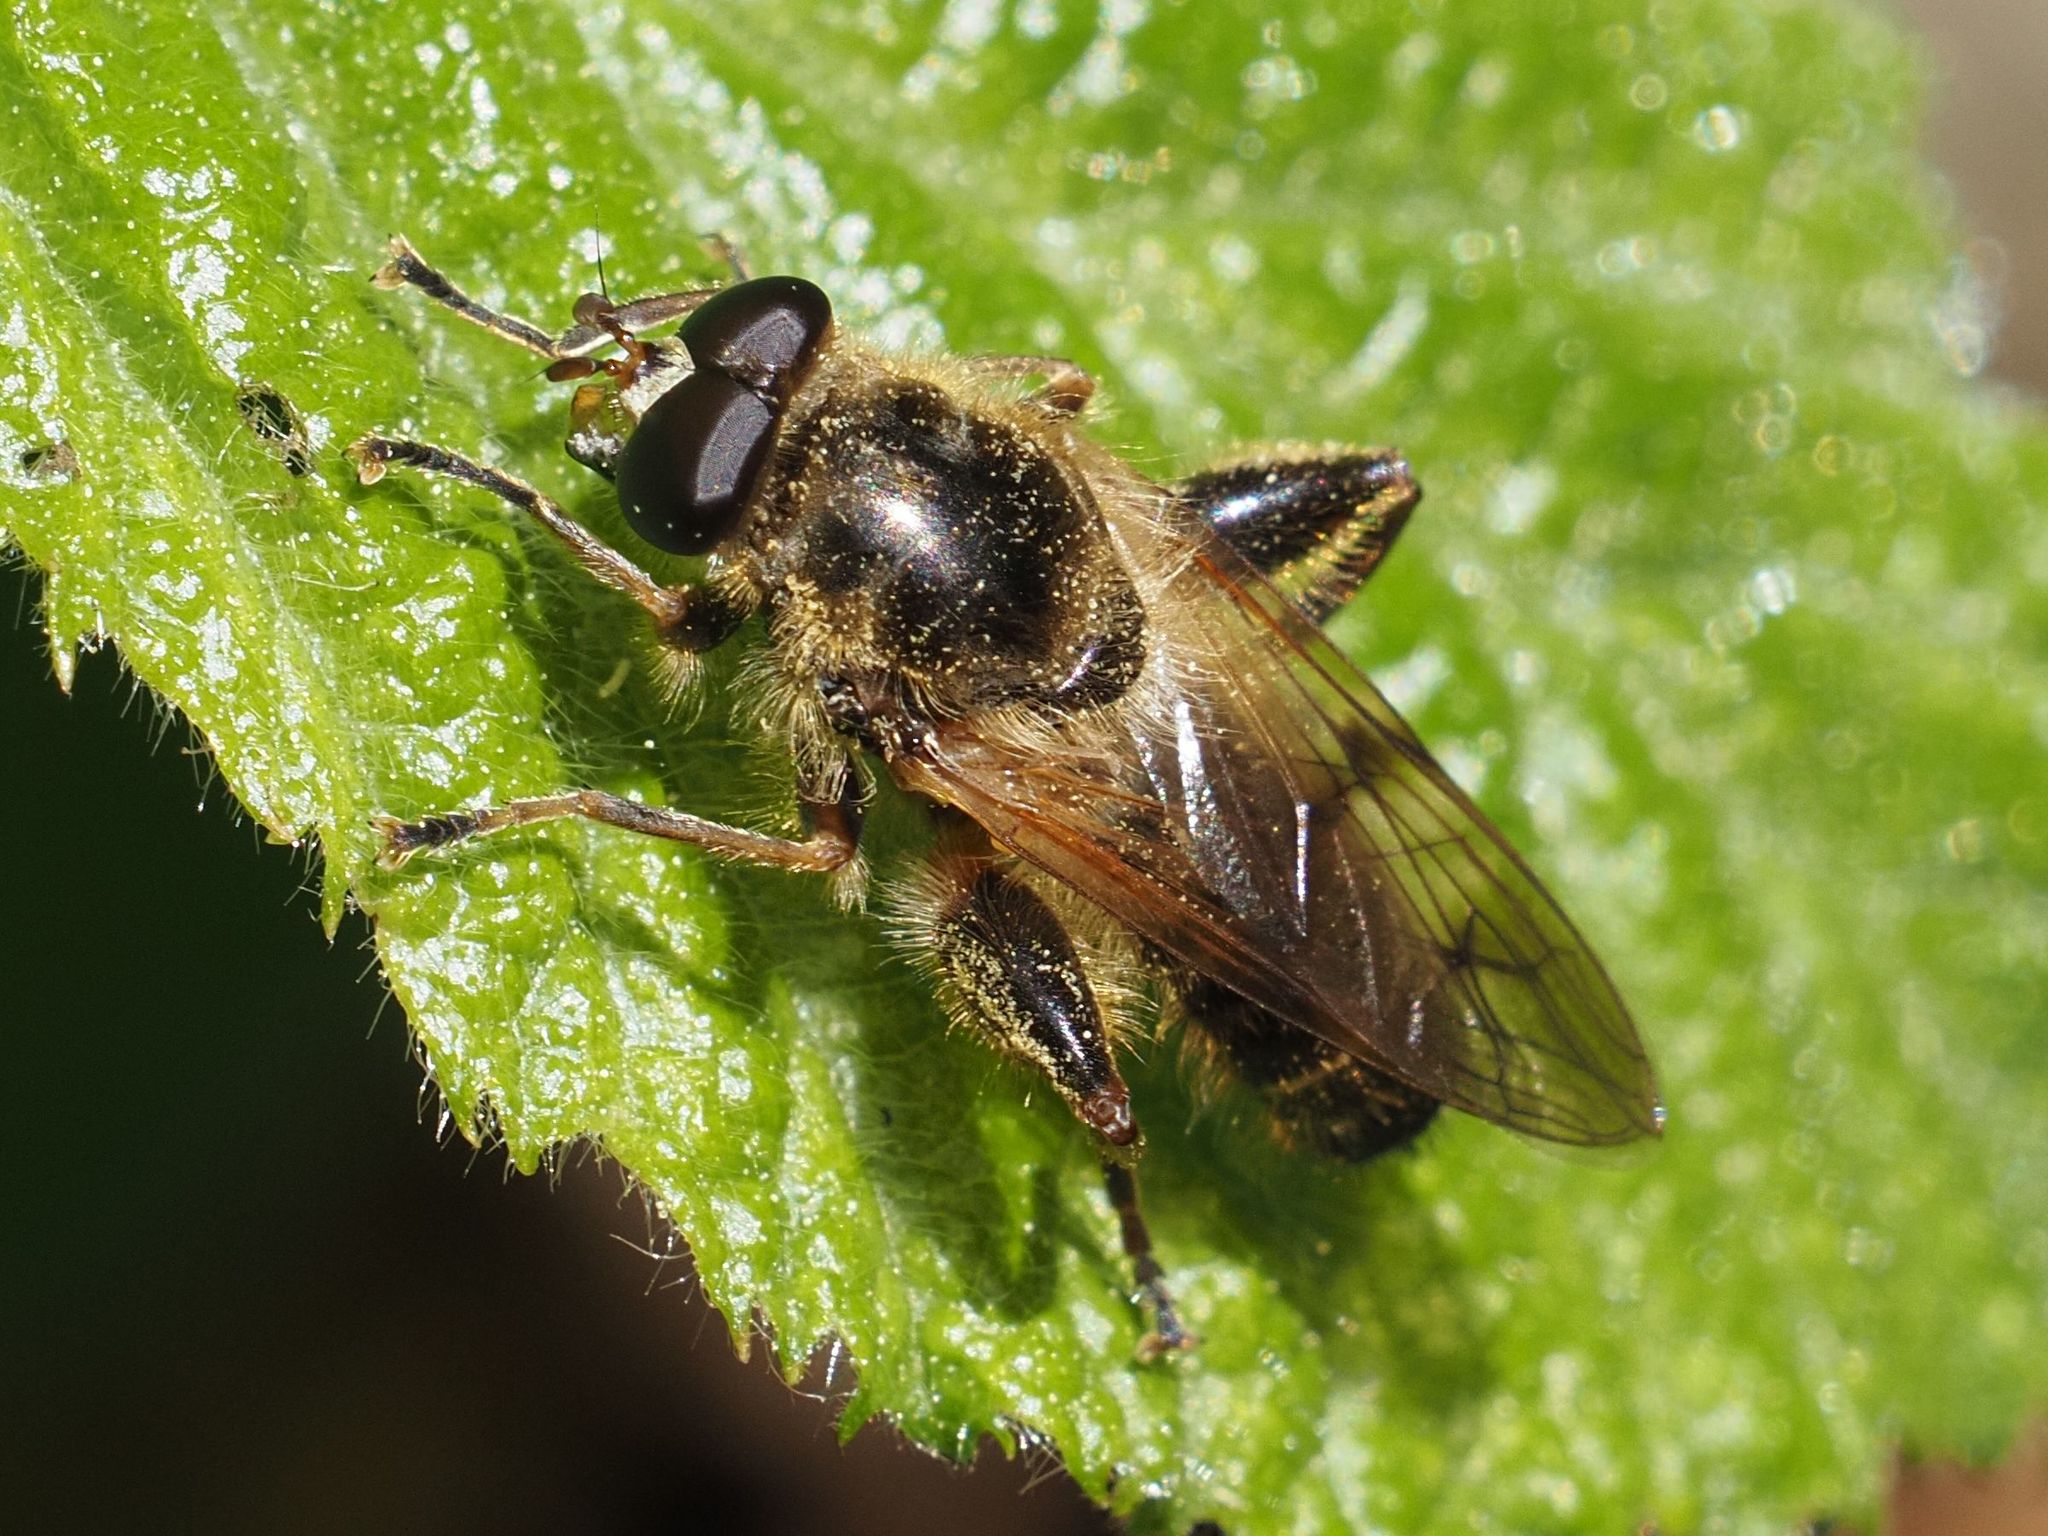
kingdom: Animalia
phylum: Arthropoda
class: Insecta
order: Diptera
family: Syrphidae
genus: Brachypalpus
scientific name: Brachypalpus valgus
